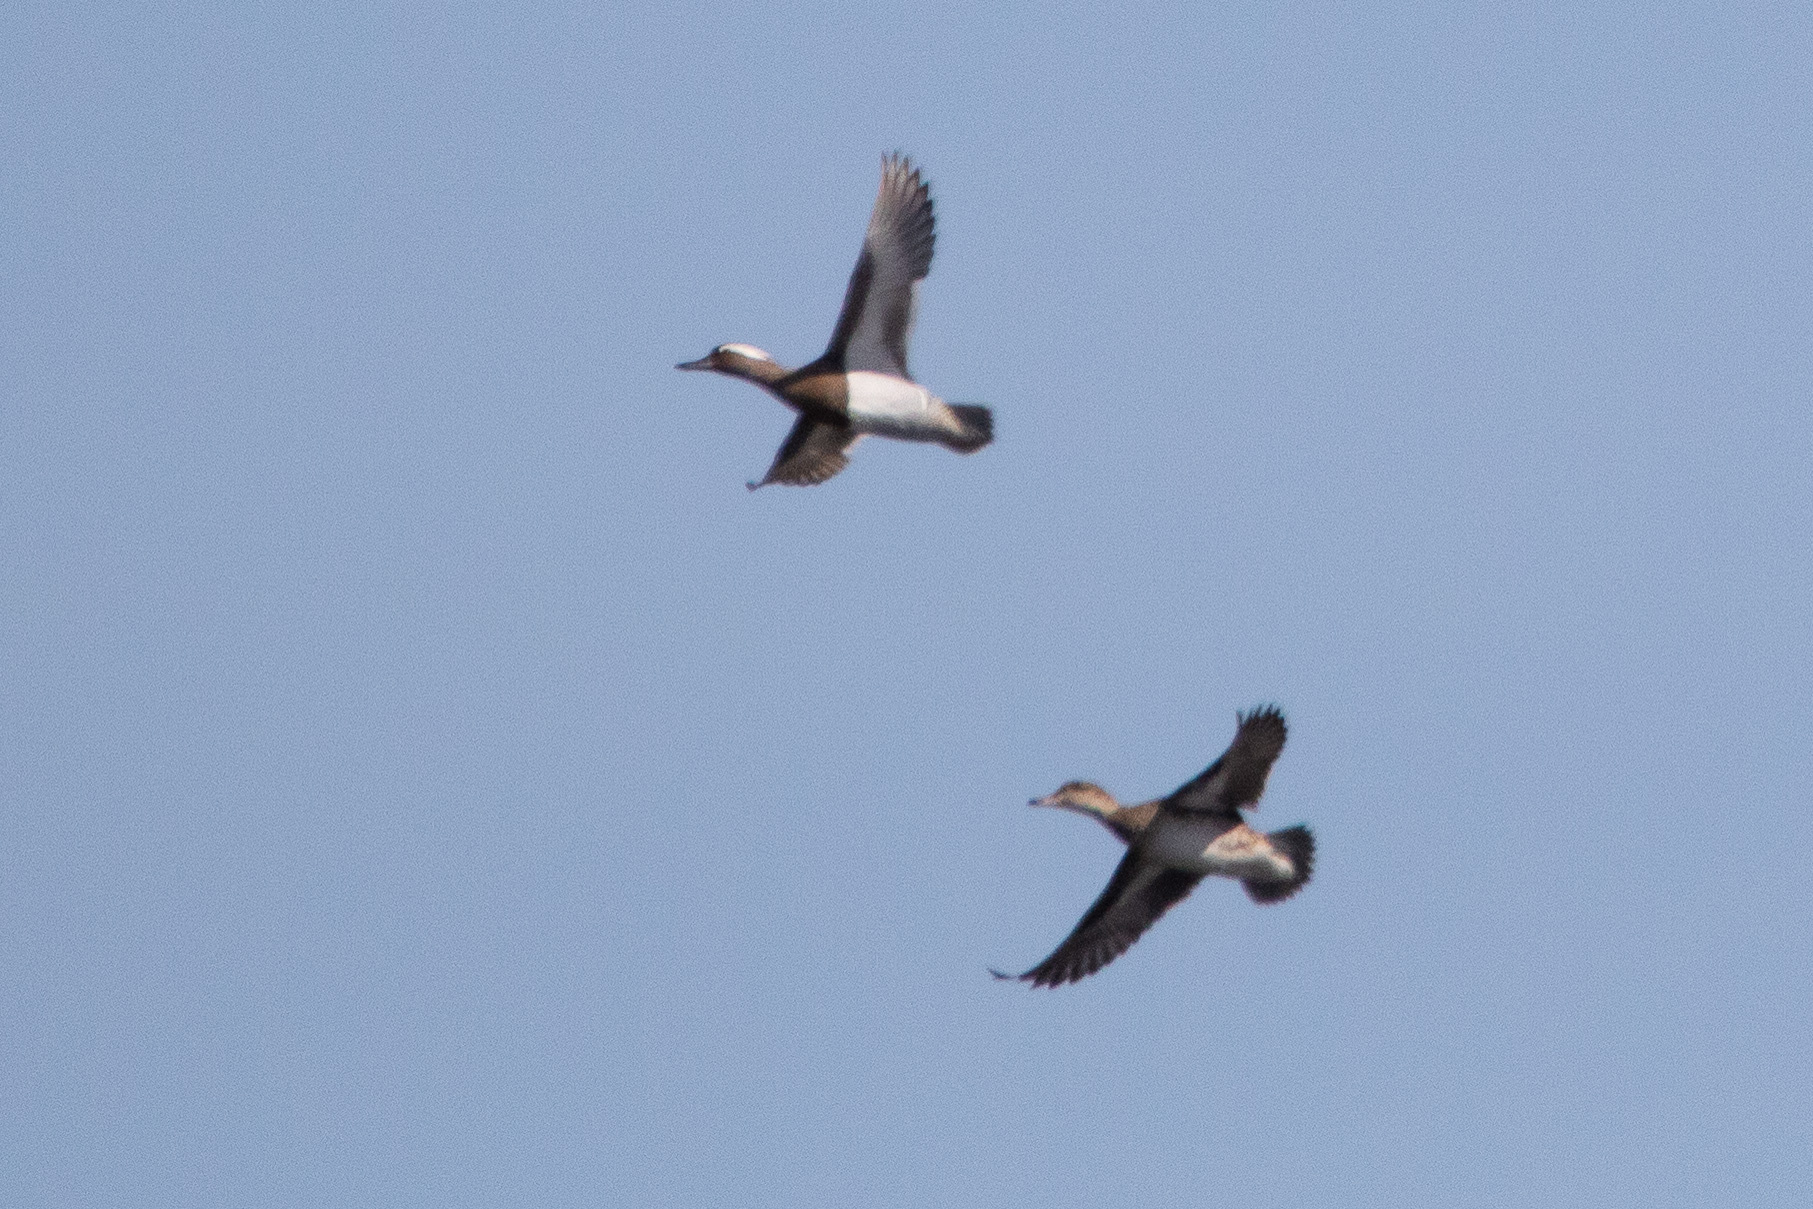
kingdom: Animalia
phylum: Chordata
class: Aves
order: Anseriformes
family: Anatidae
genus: Spatula
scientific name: Spatula querquedula
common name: Garganey
